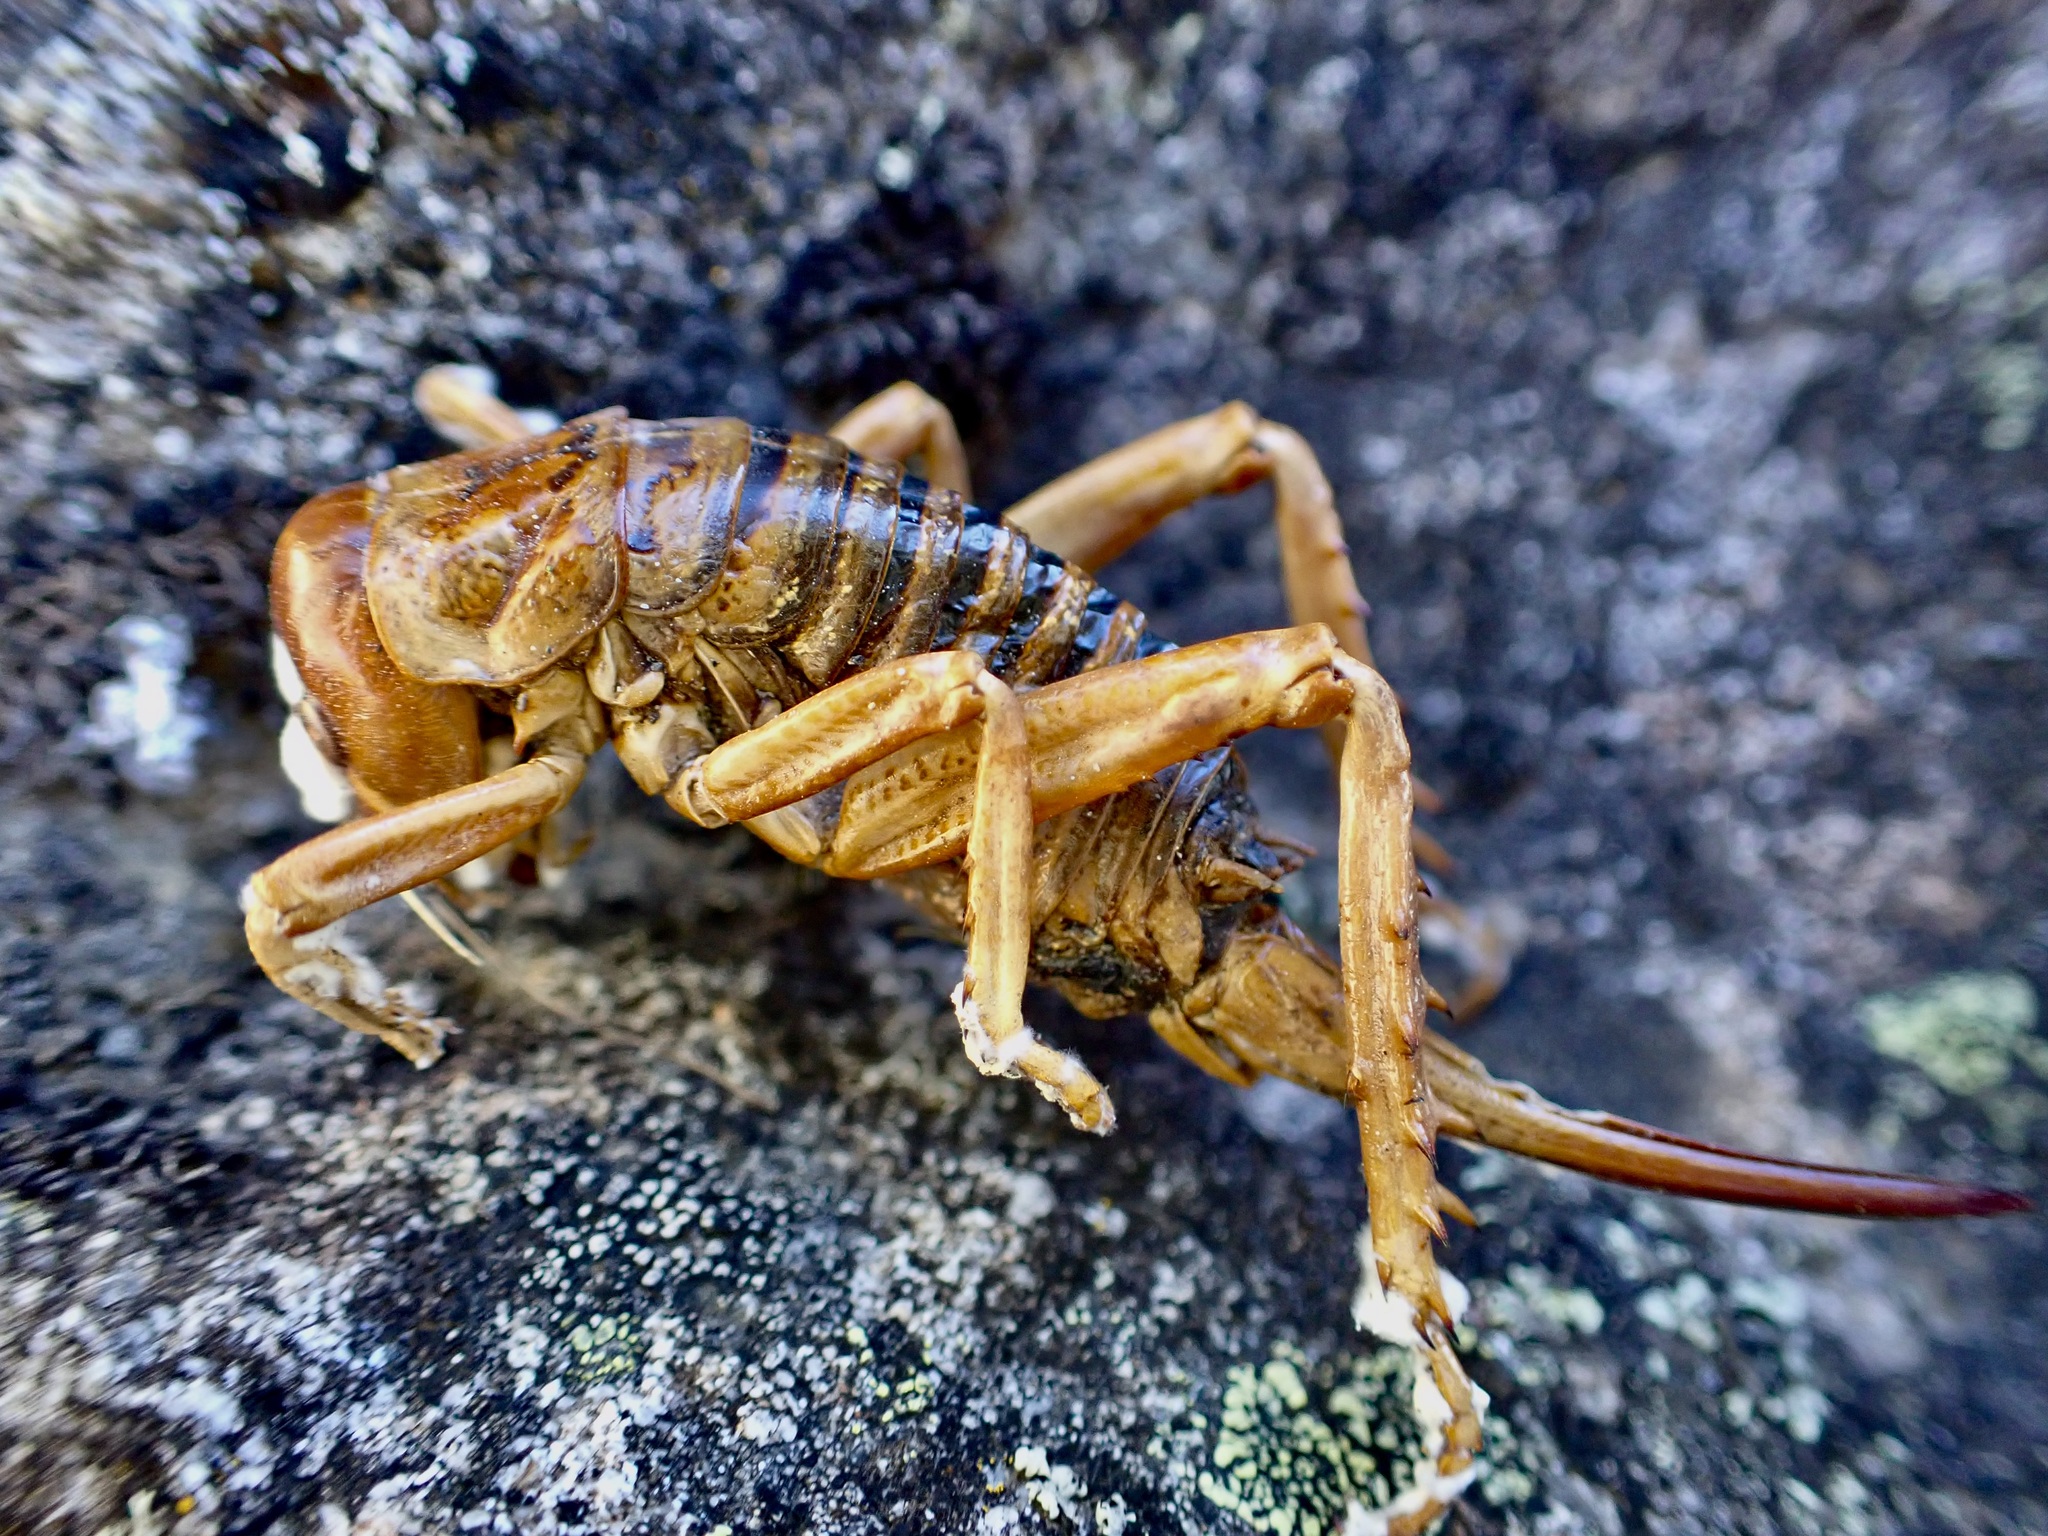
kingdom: Animalia
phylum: Arthropoda
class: Insecta
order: Orthoptera
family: Anostostomatidae
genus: Hemideina
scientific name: Hemideina maori
